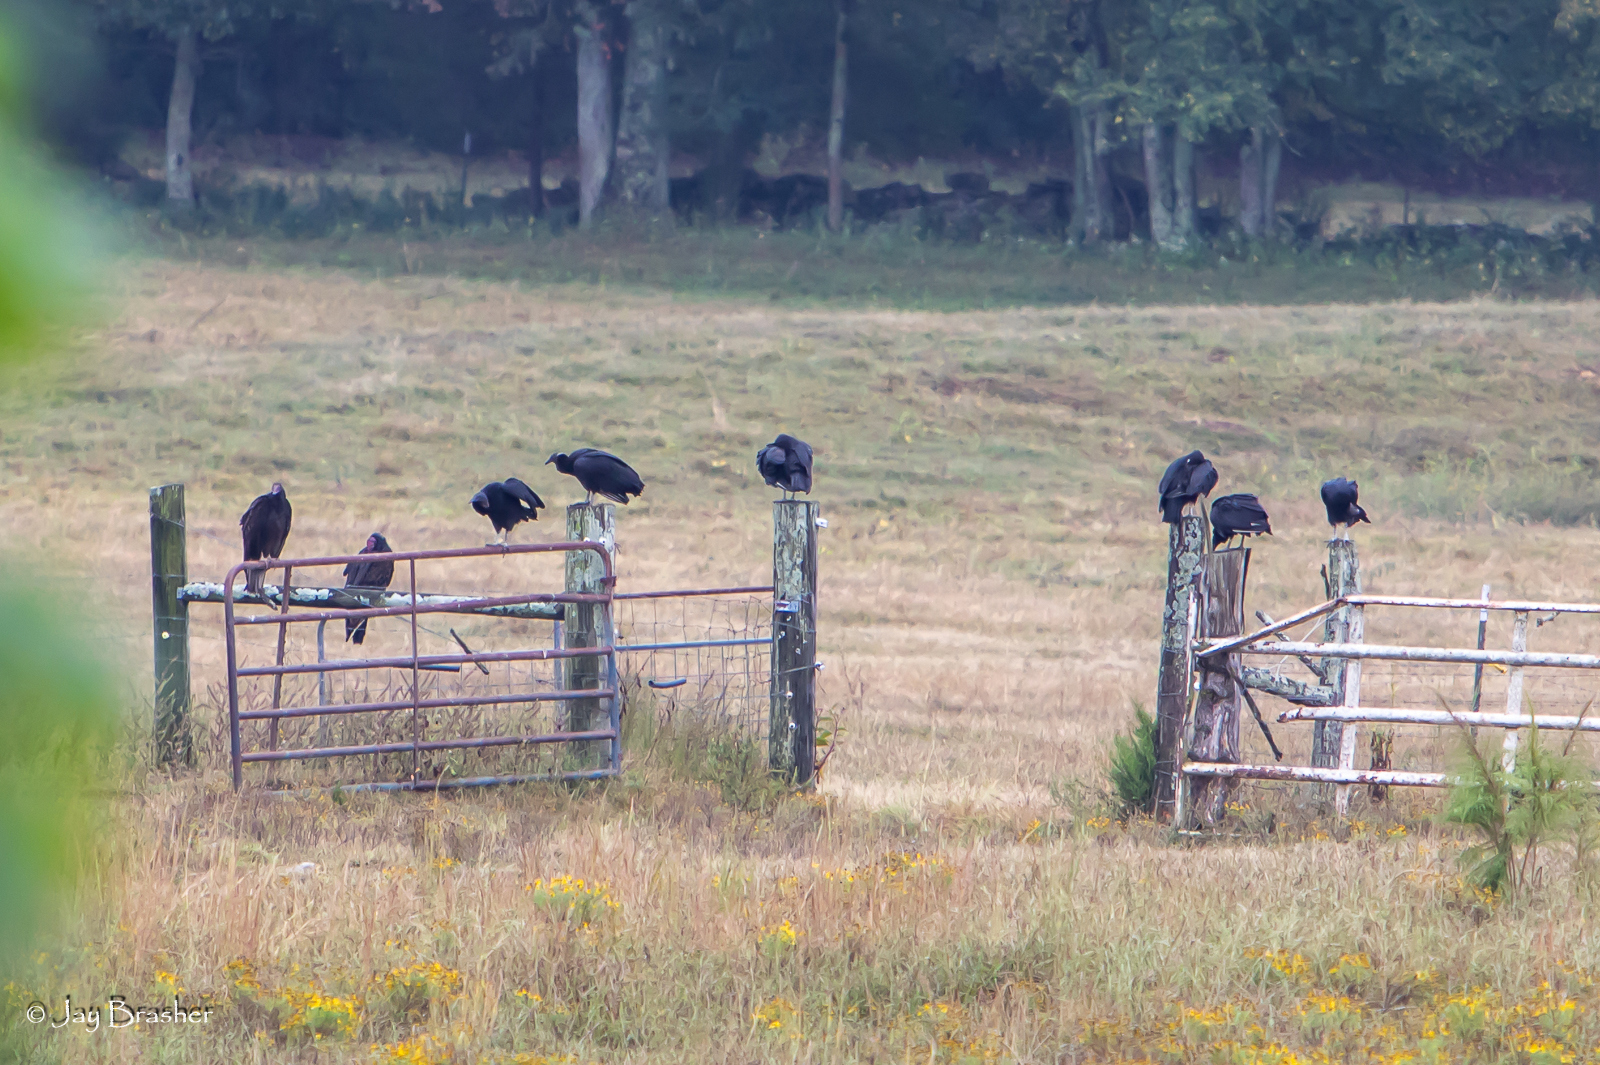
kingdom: Animalia
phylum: Chordata
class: Aves
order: Accipitriformes
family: Cathartidae
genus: Cathartes
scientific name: Cathartes aura
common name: Turkey vulture
